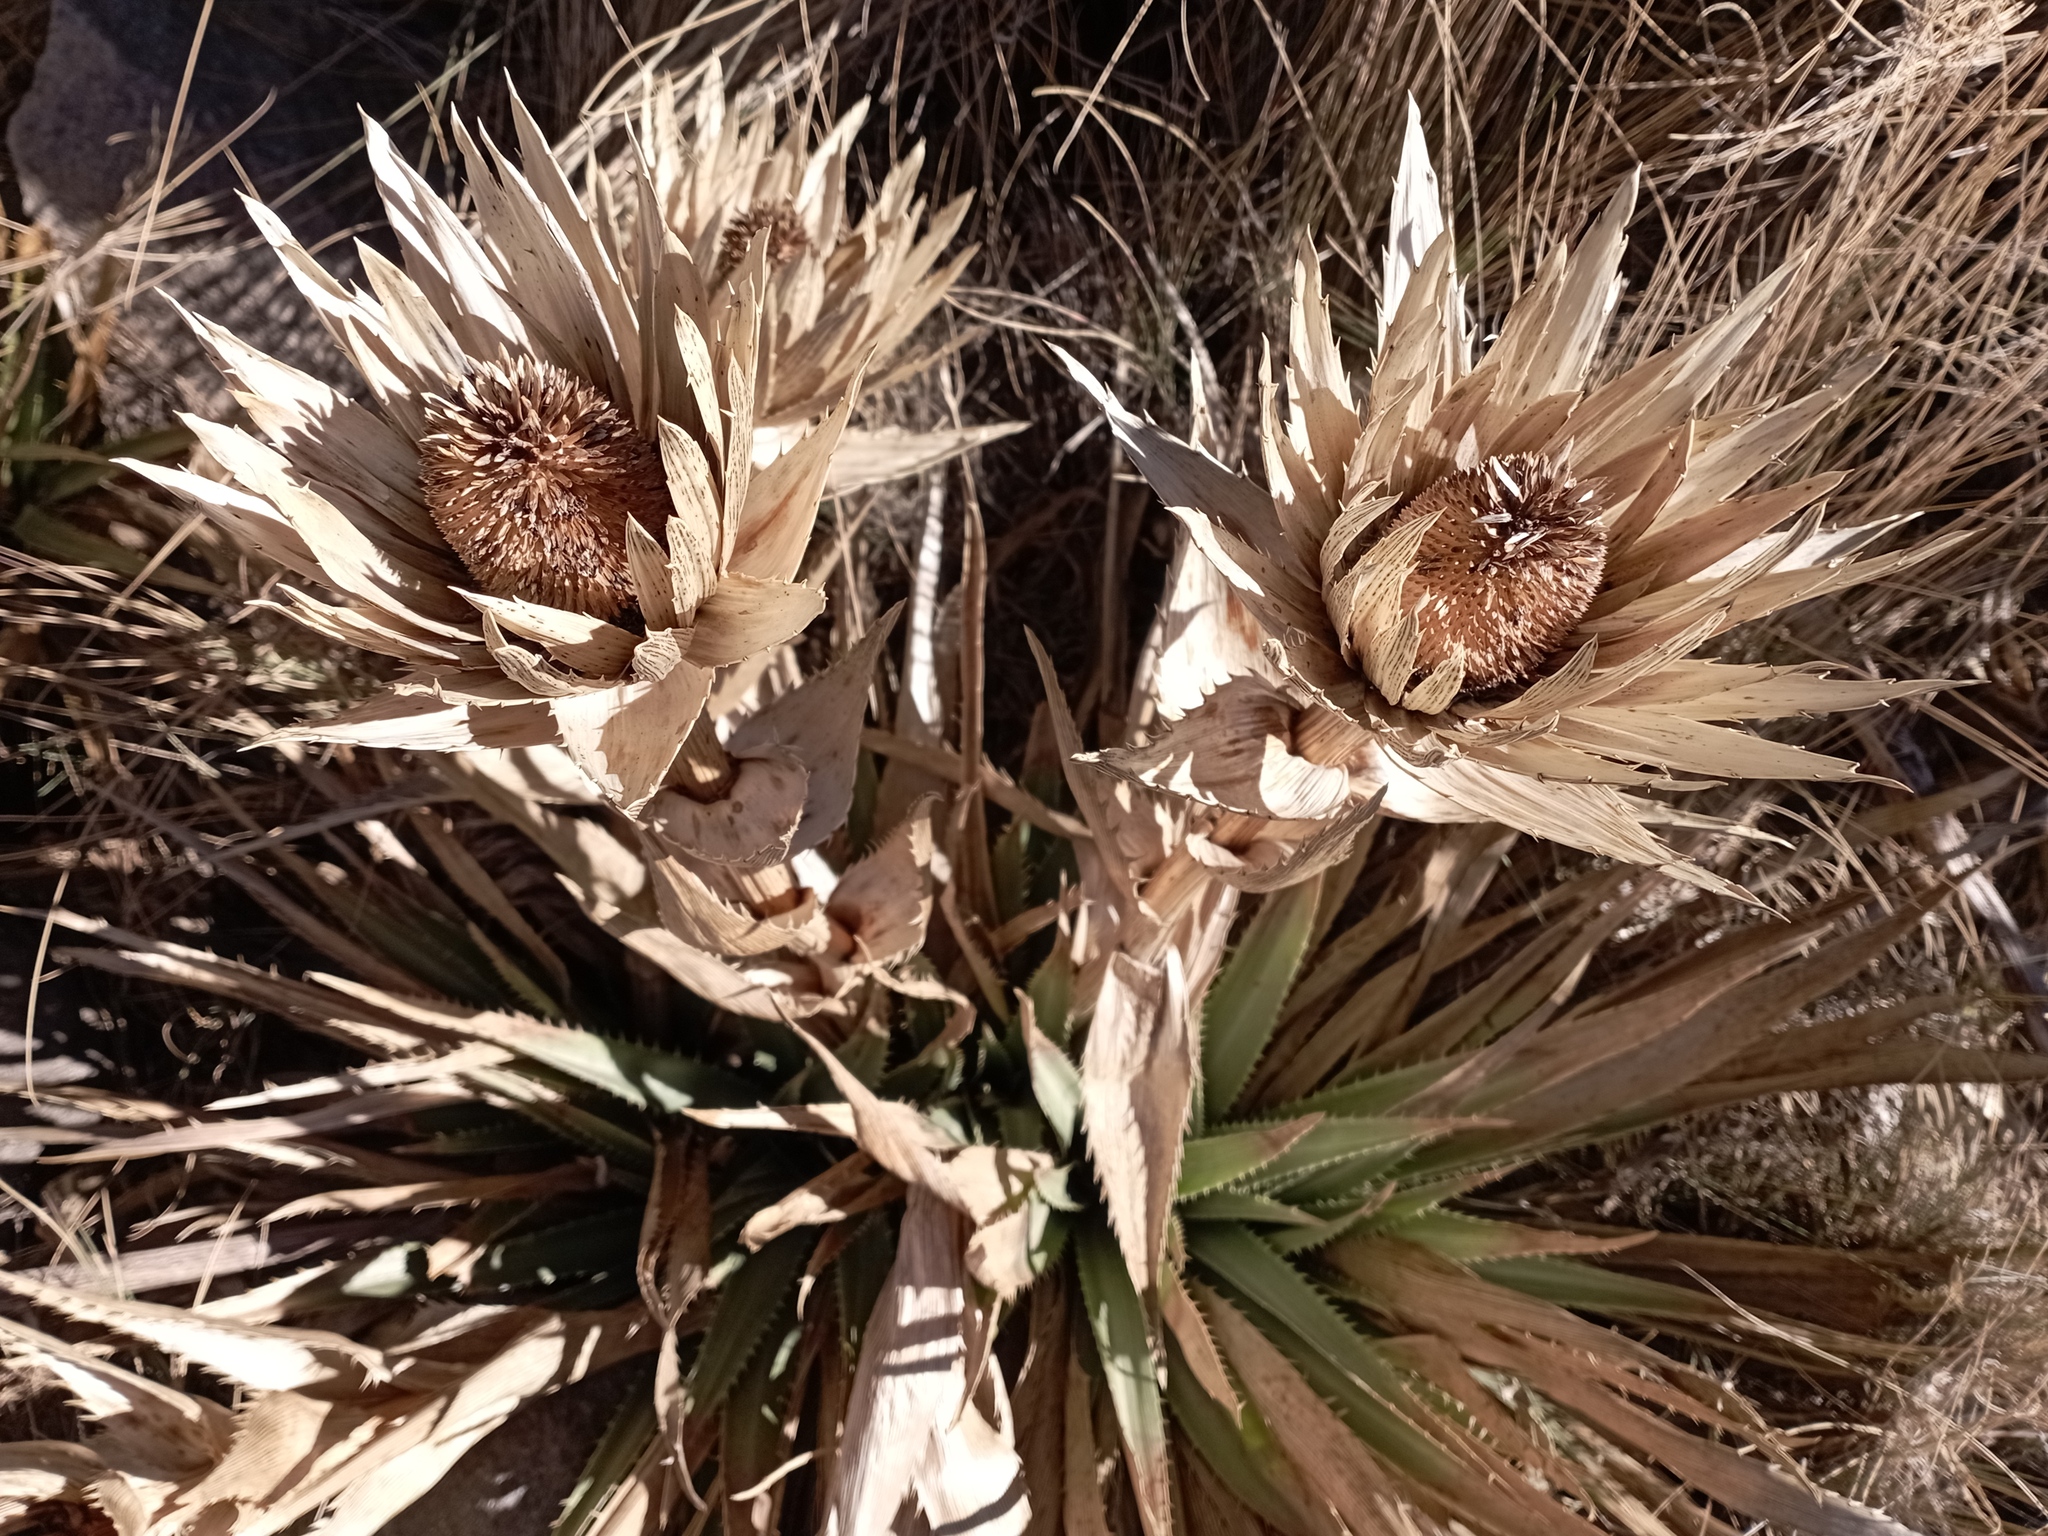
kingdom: Plantae
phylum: Tracheophyta
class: Magnoliopsida
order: Apiales
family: Apiaceae
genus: Eryngium
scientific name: Eryngium proteiflorum
